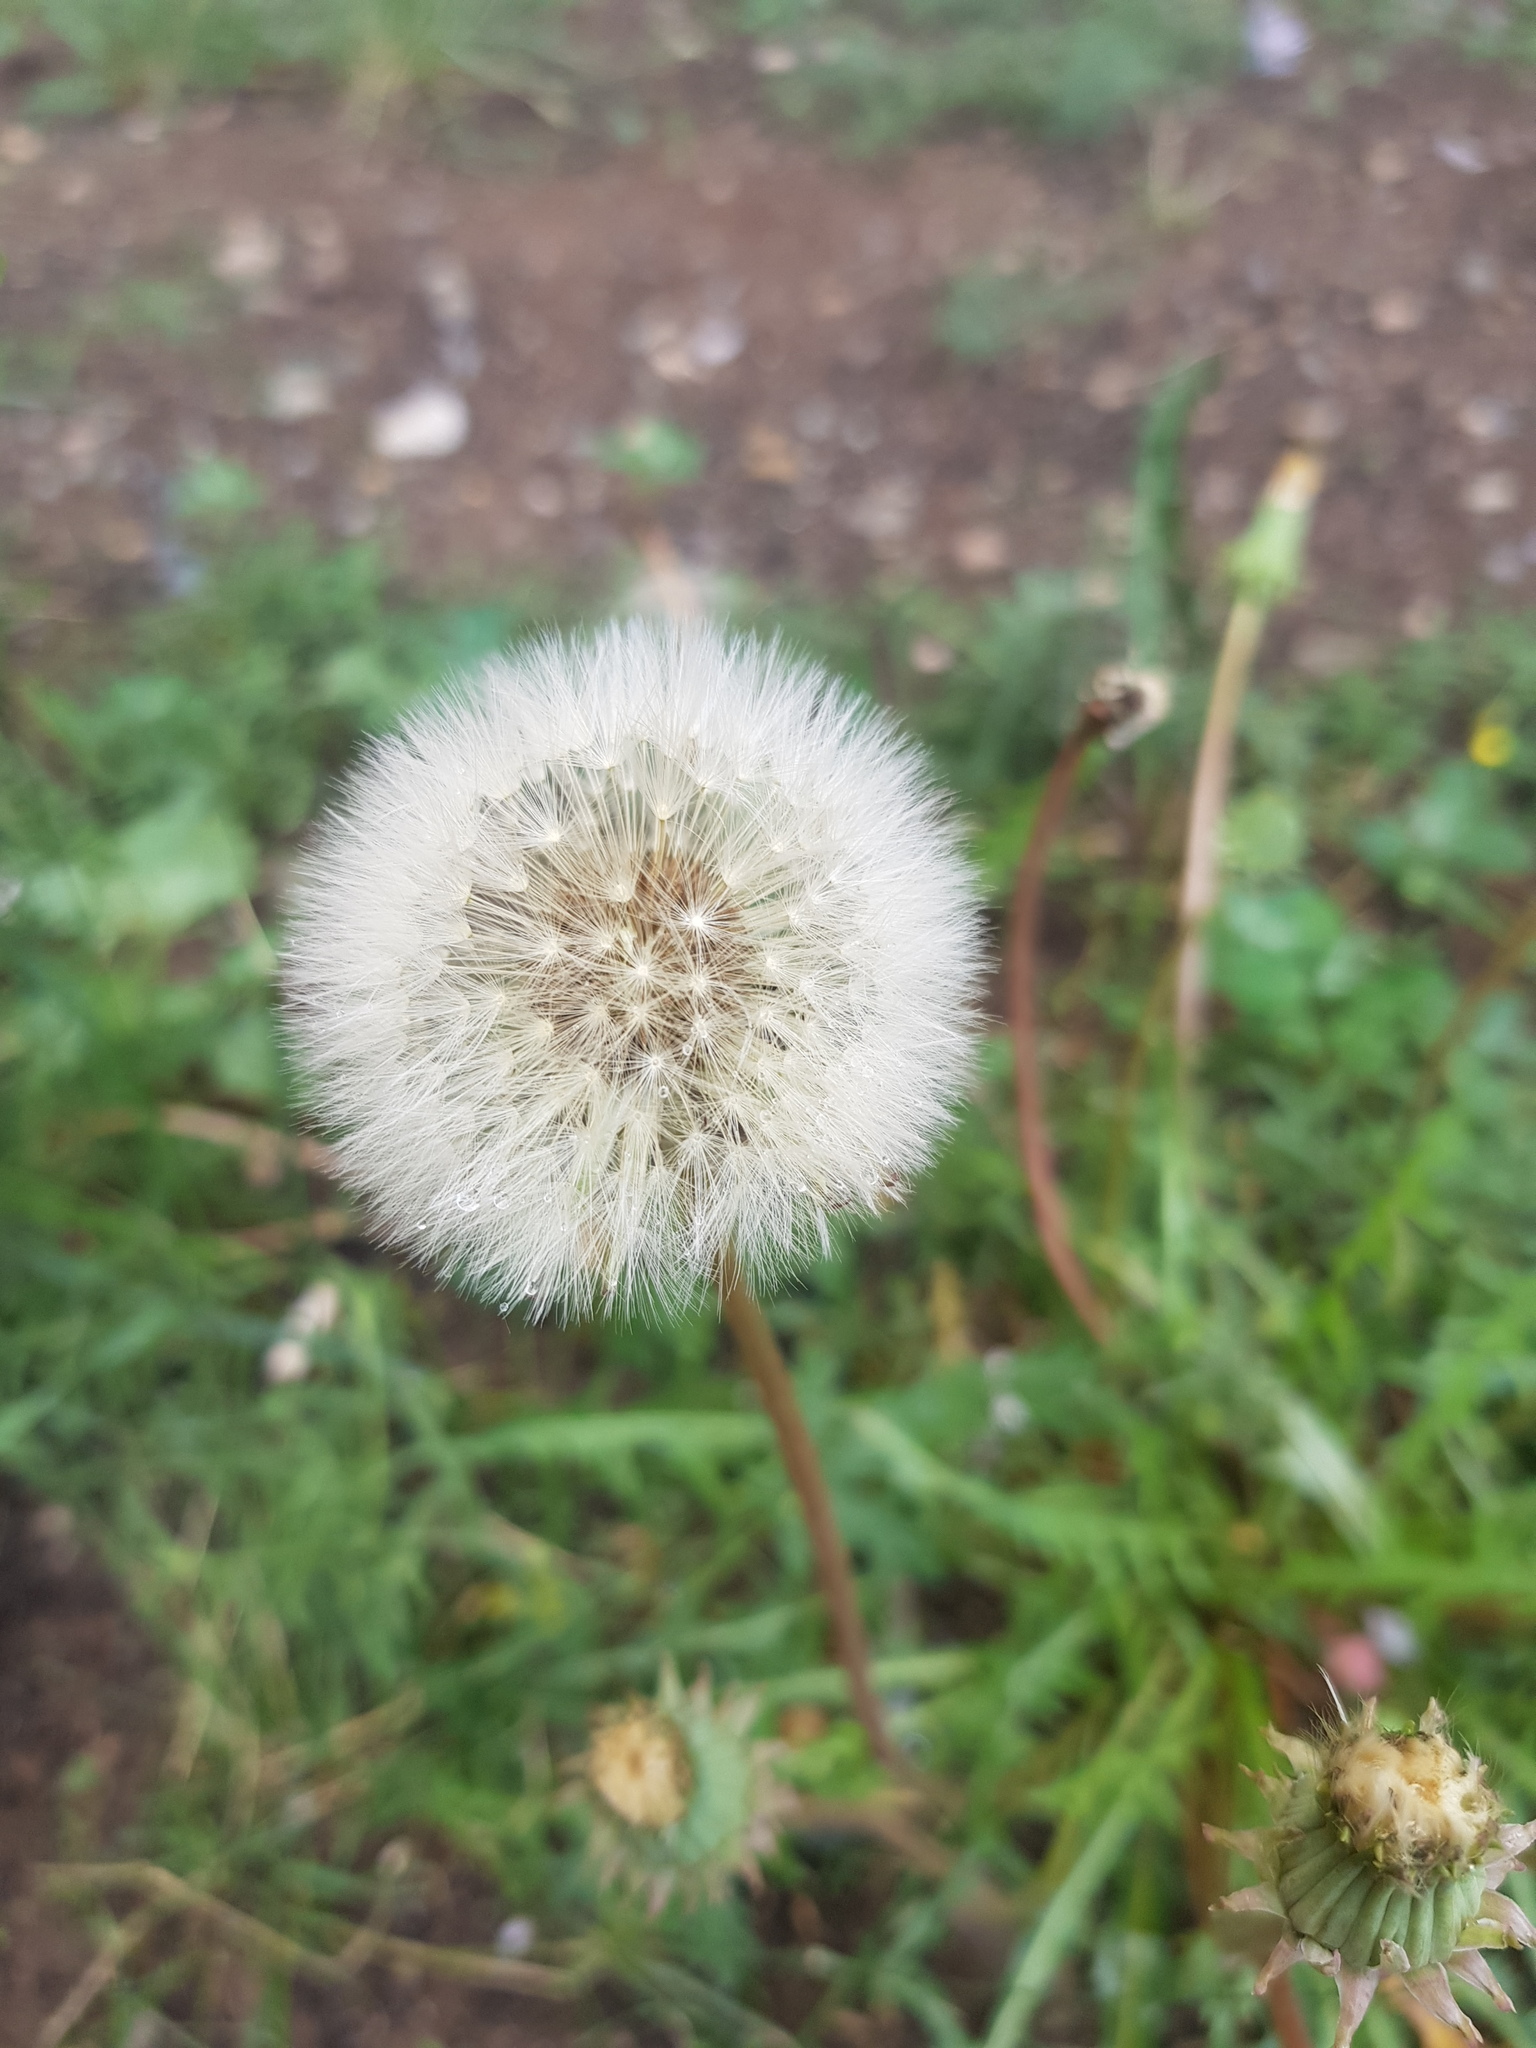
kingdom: Plantae
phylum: Tracheophyta
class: Magnoliopsida
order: Asterales
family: Asteraceae
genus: Taraxacum
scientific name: Taraxacum officinale
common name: Common dandelion
